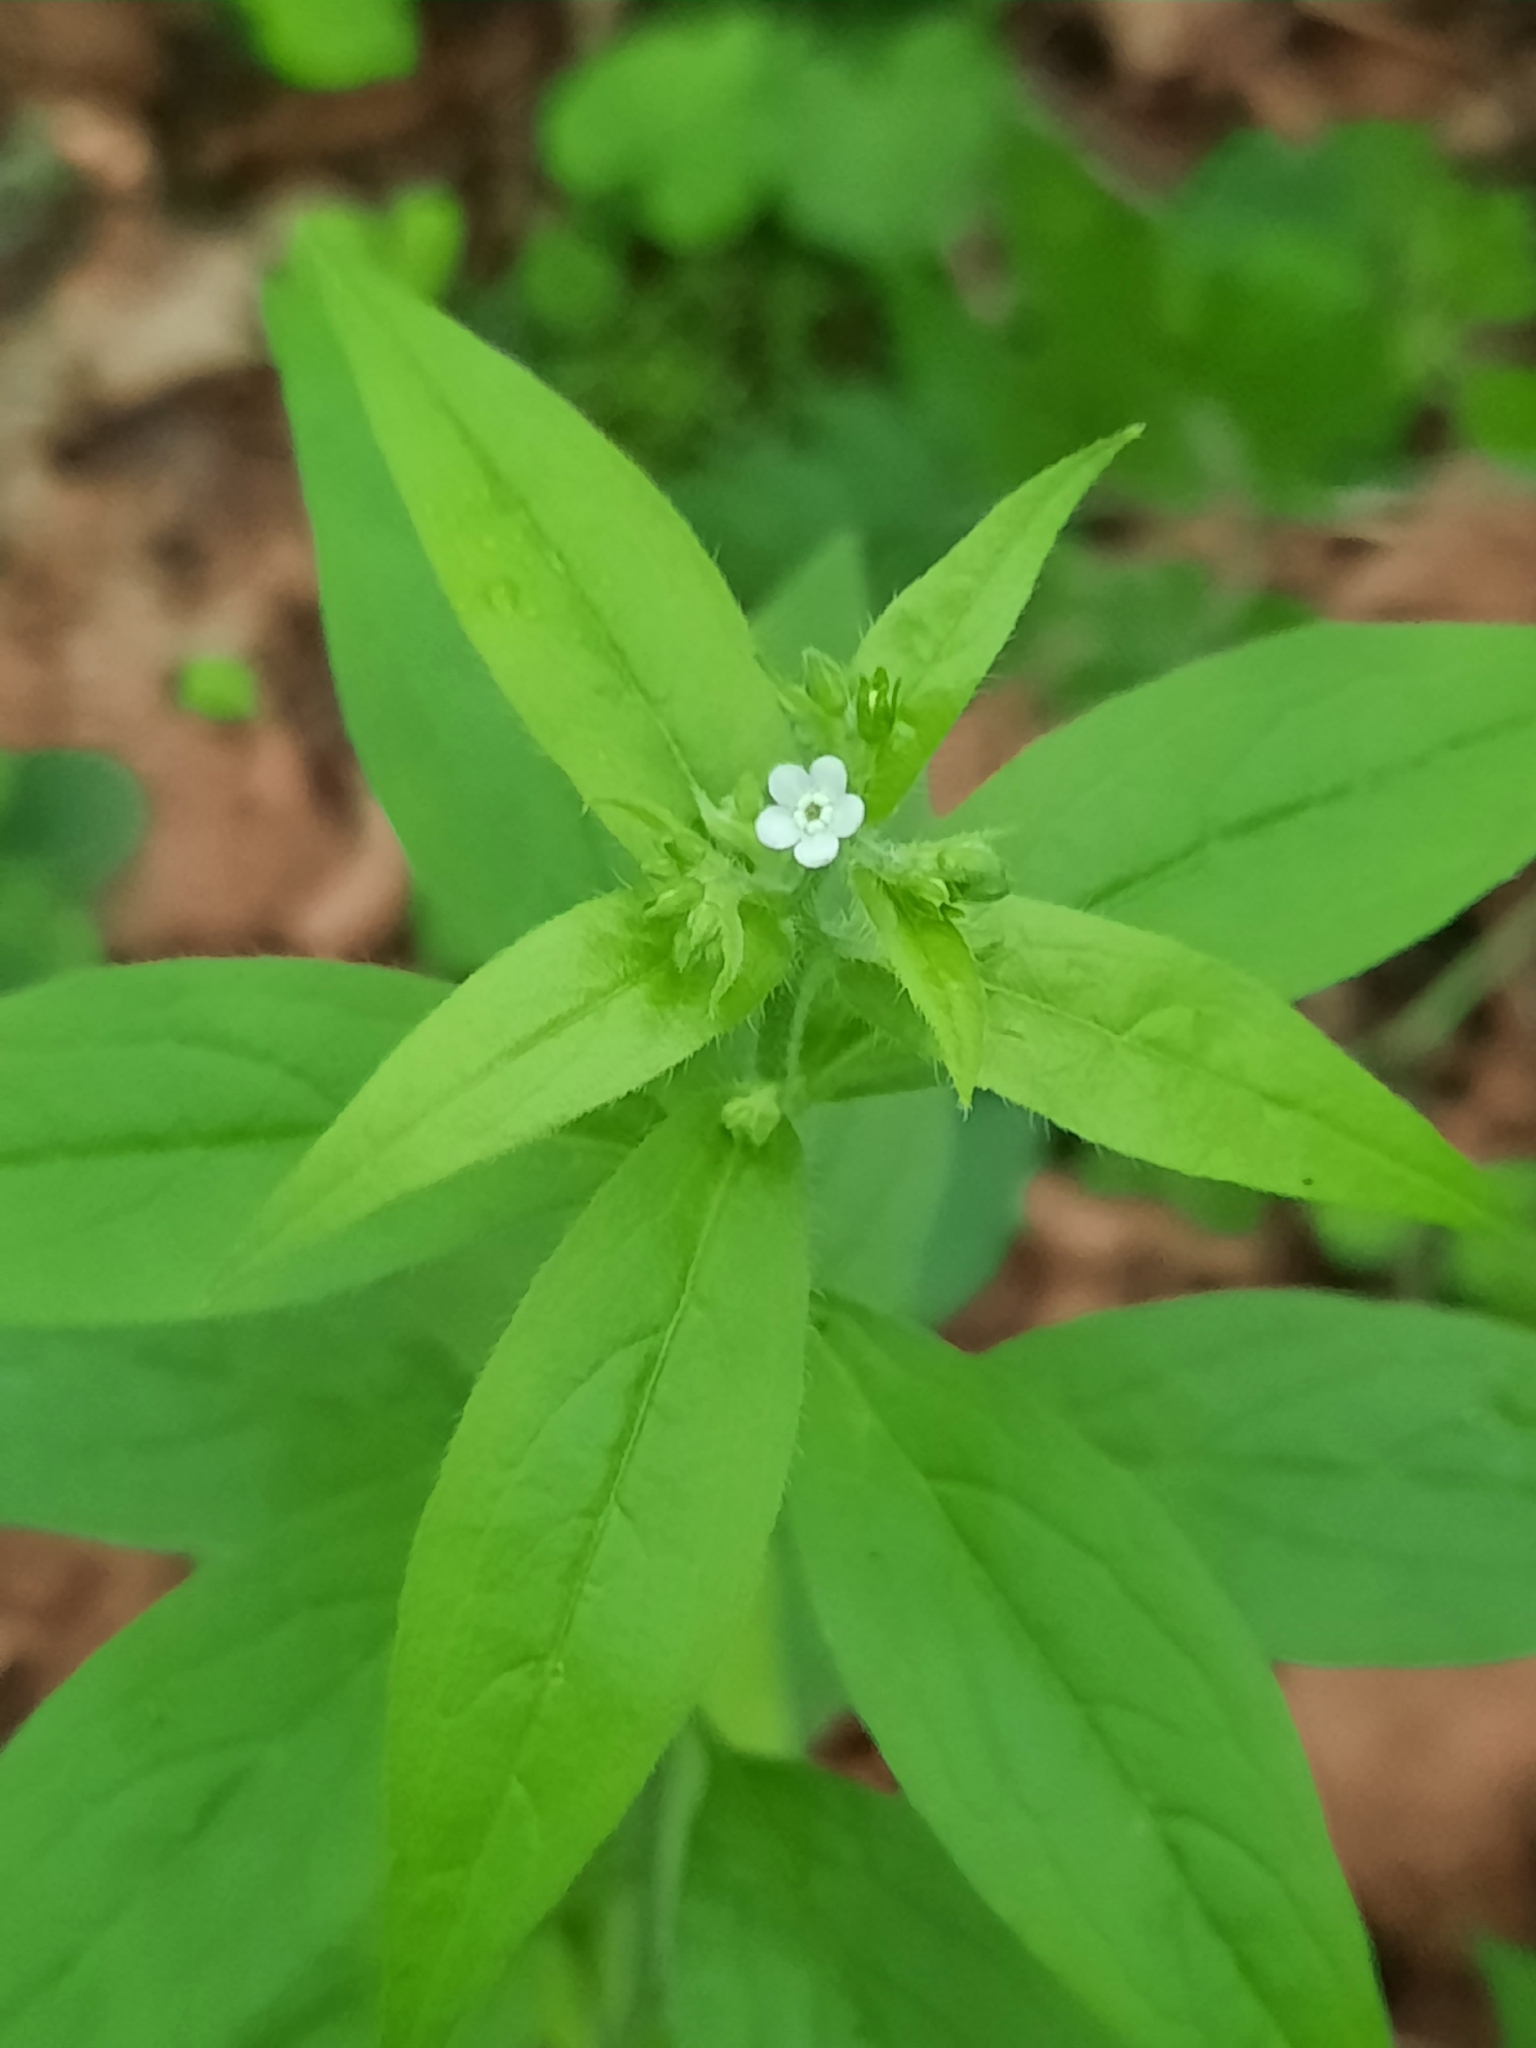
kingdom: Plantae
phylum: Tracheophyta
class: Magnoliopsida
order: Boraginales
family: Boraginaceae
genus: Hackelia
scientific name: Hackelia virginiana
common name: Beggar's-lice
